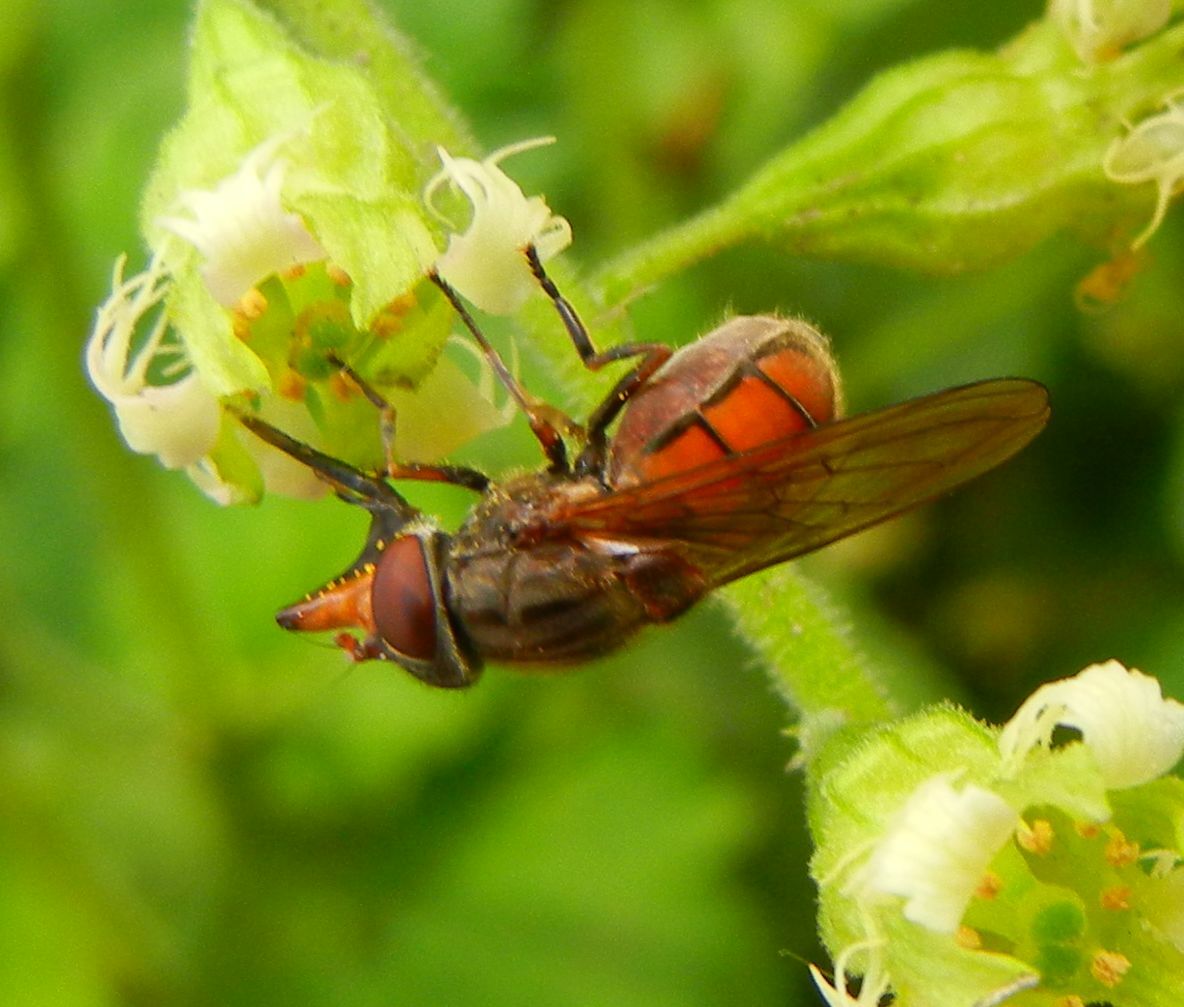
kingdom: Animalia
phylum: Arthropoda
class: Insecta
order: Diptera
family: Syrphidae
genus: Rhingia
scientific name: Rhingia campestris
